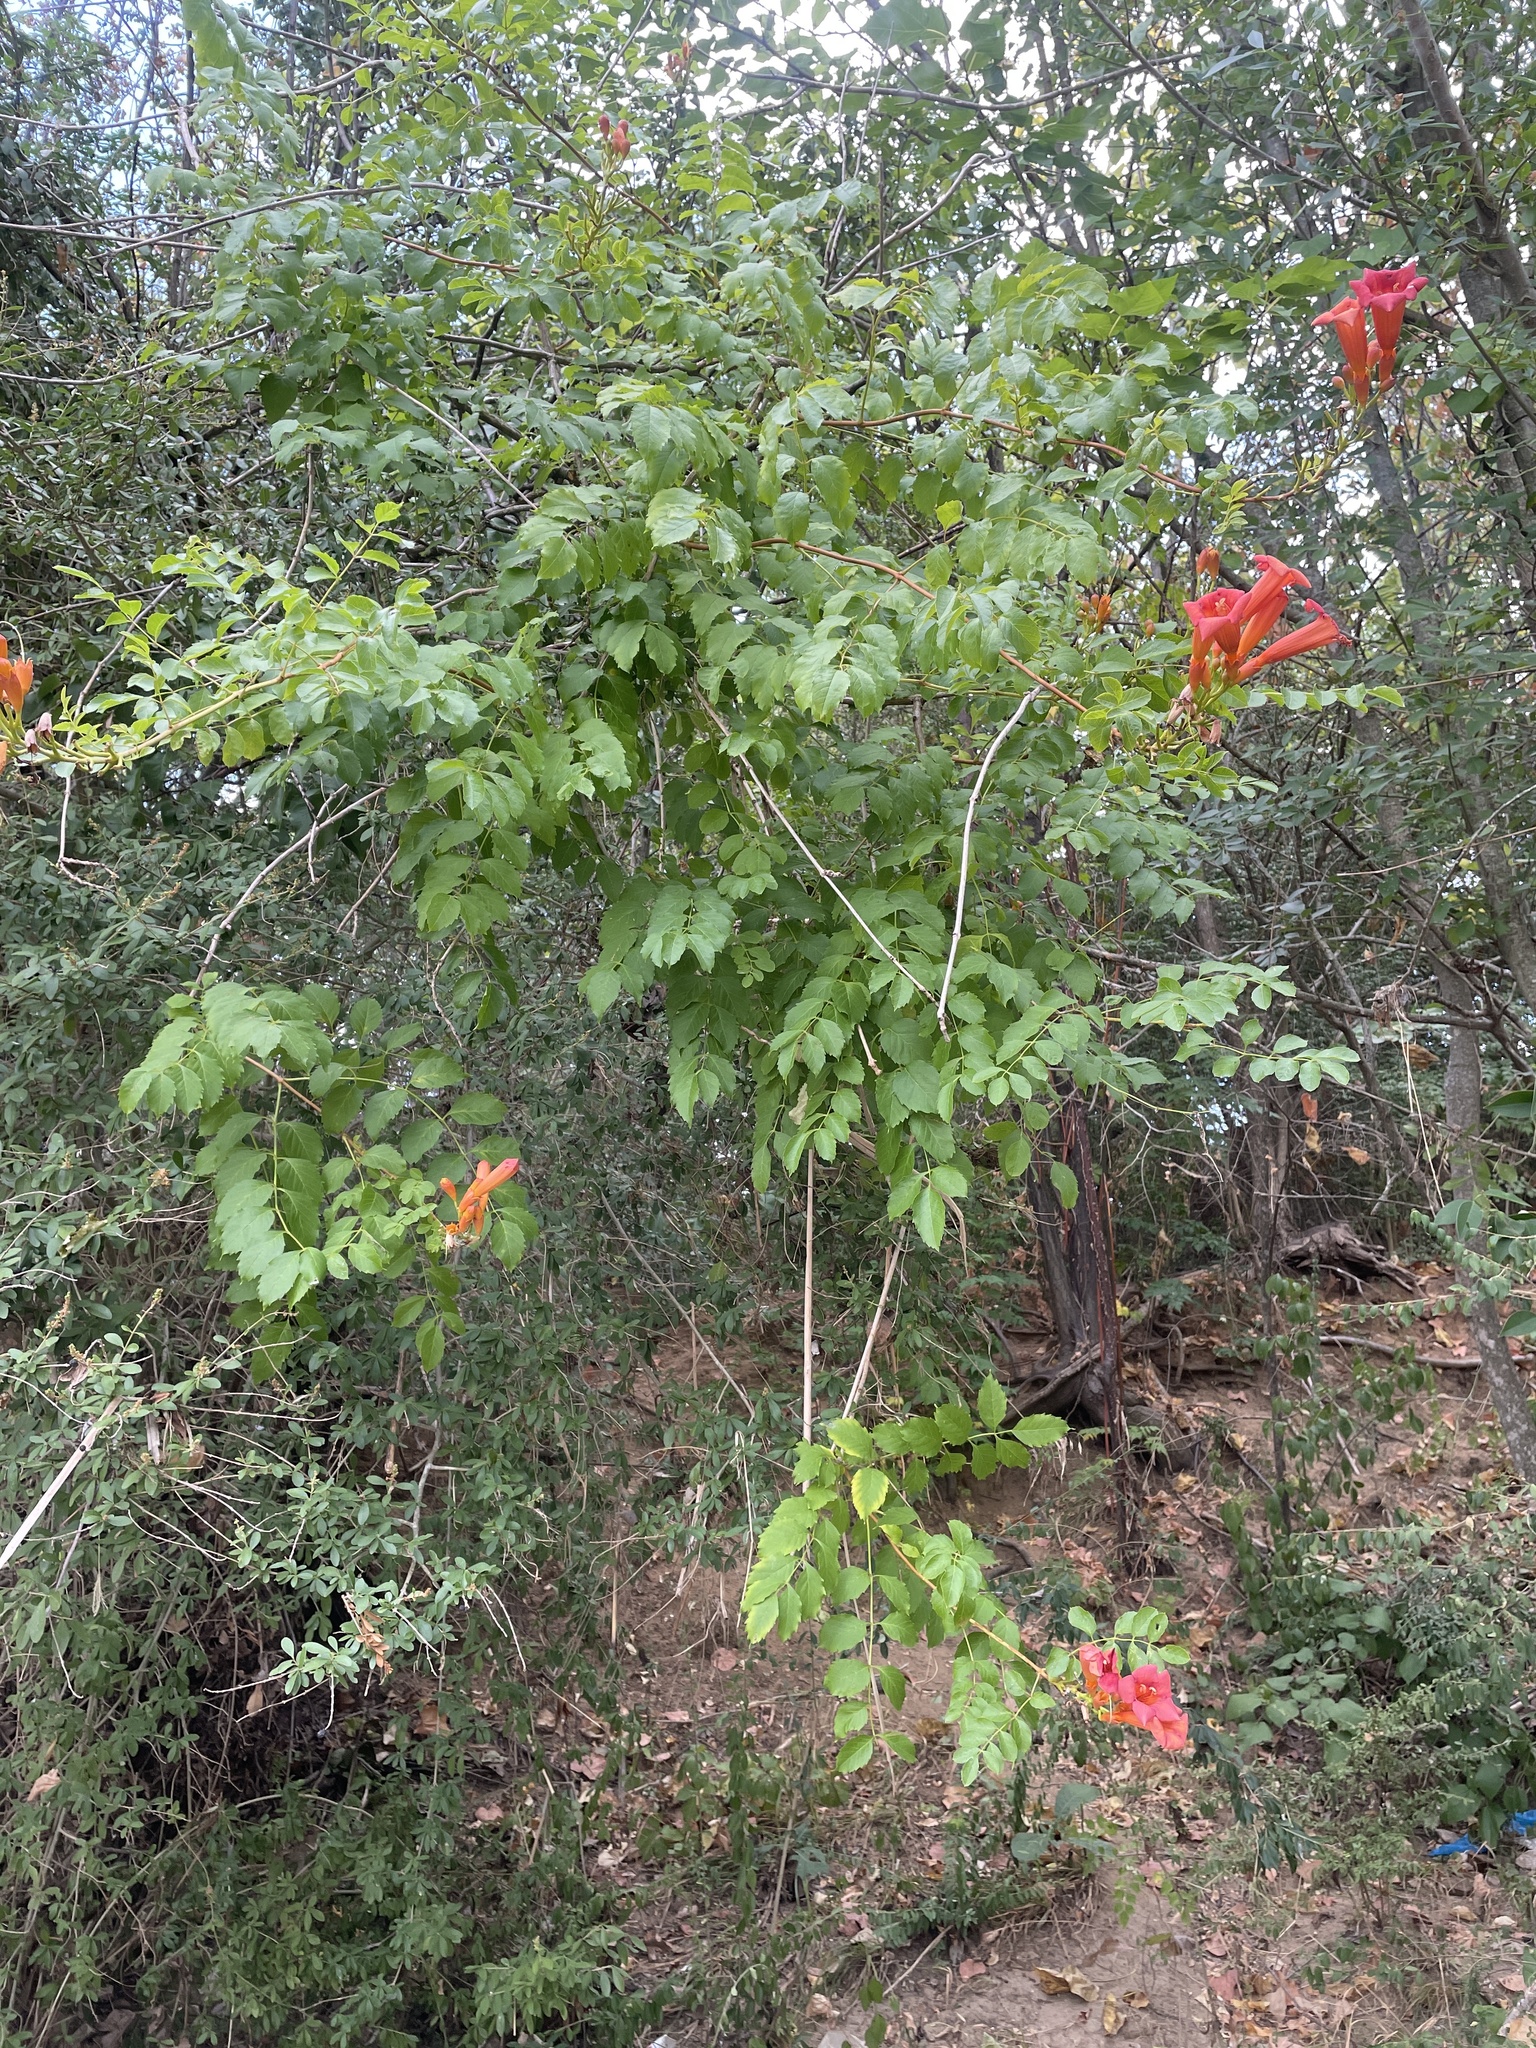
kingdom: Plantae
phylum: Tracheophyta
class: Magnoliopsida
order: Lamiales
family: Bignoniaceae
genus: Campsis
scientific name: Campsis radicans
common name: Trumpet-creeper
